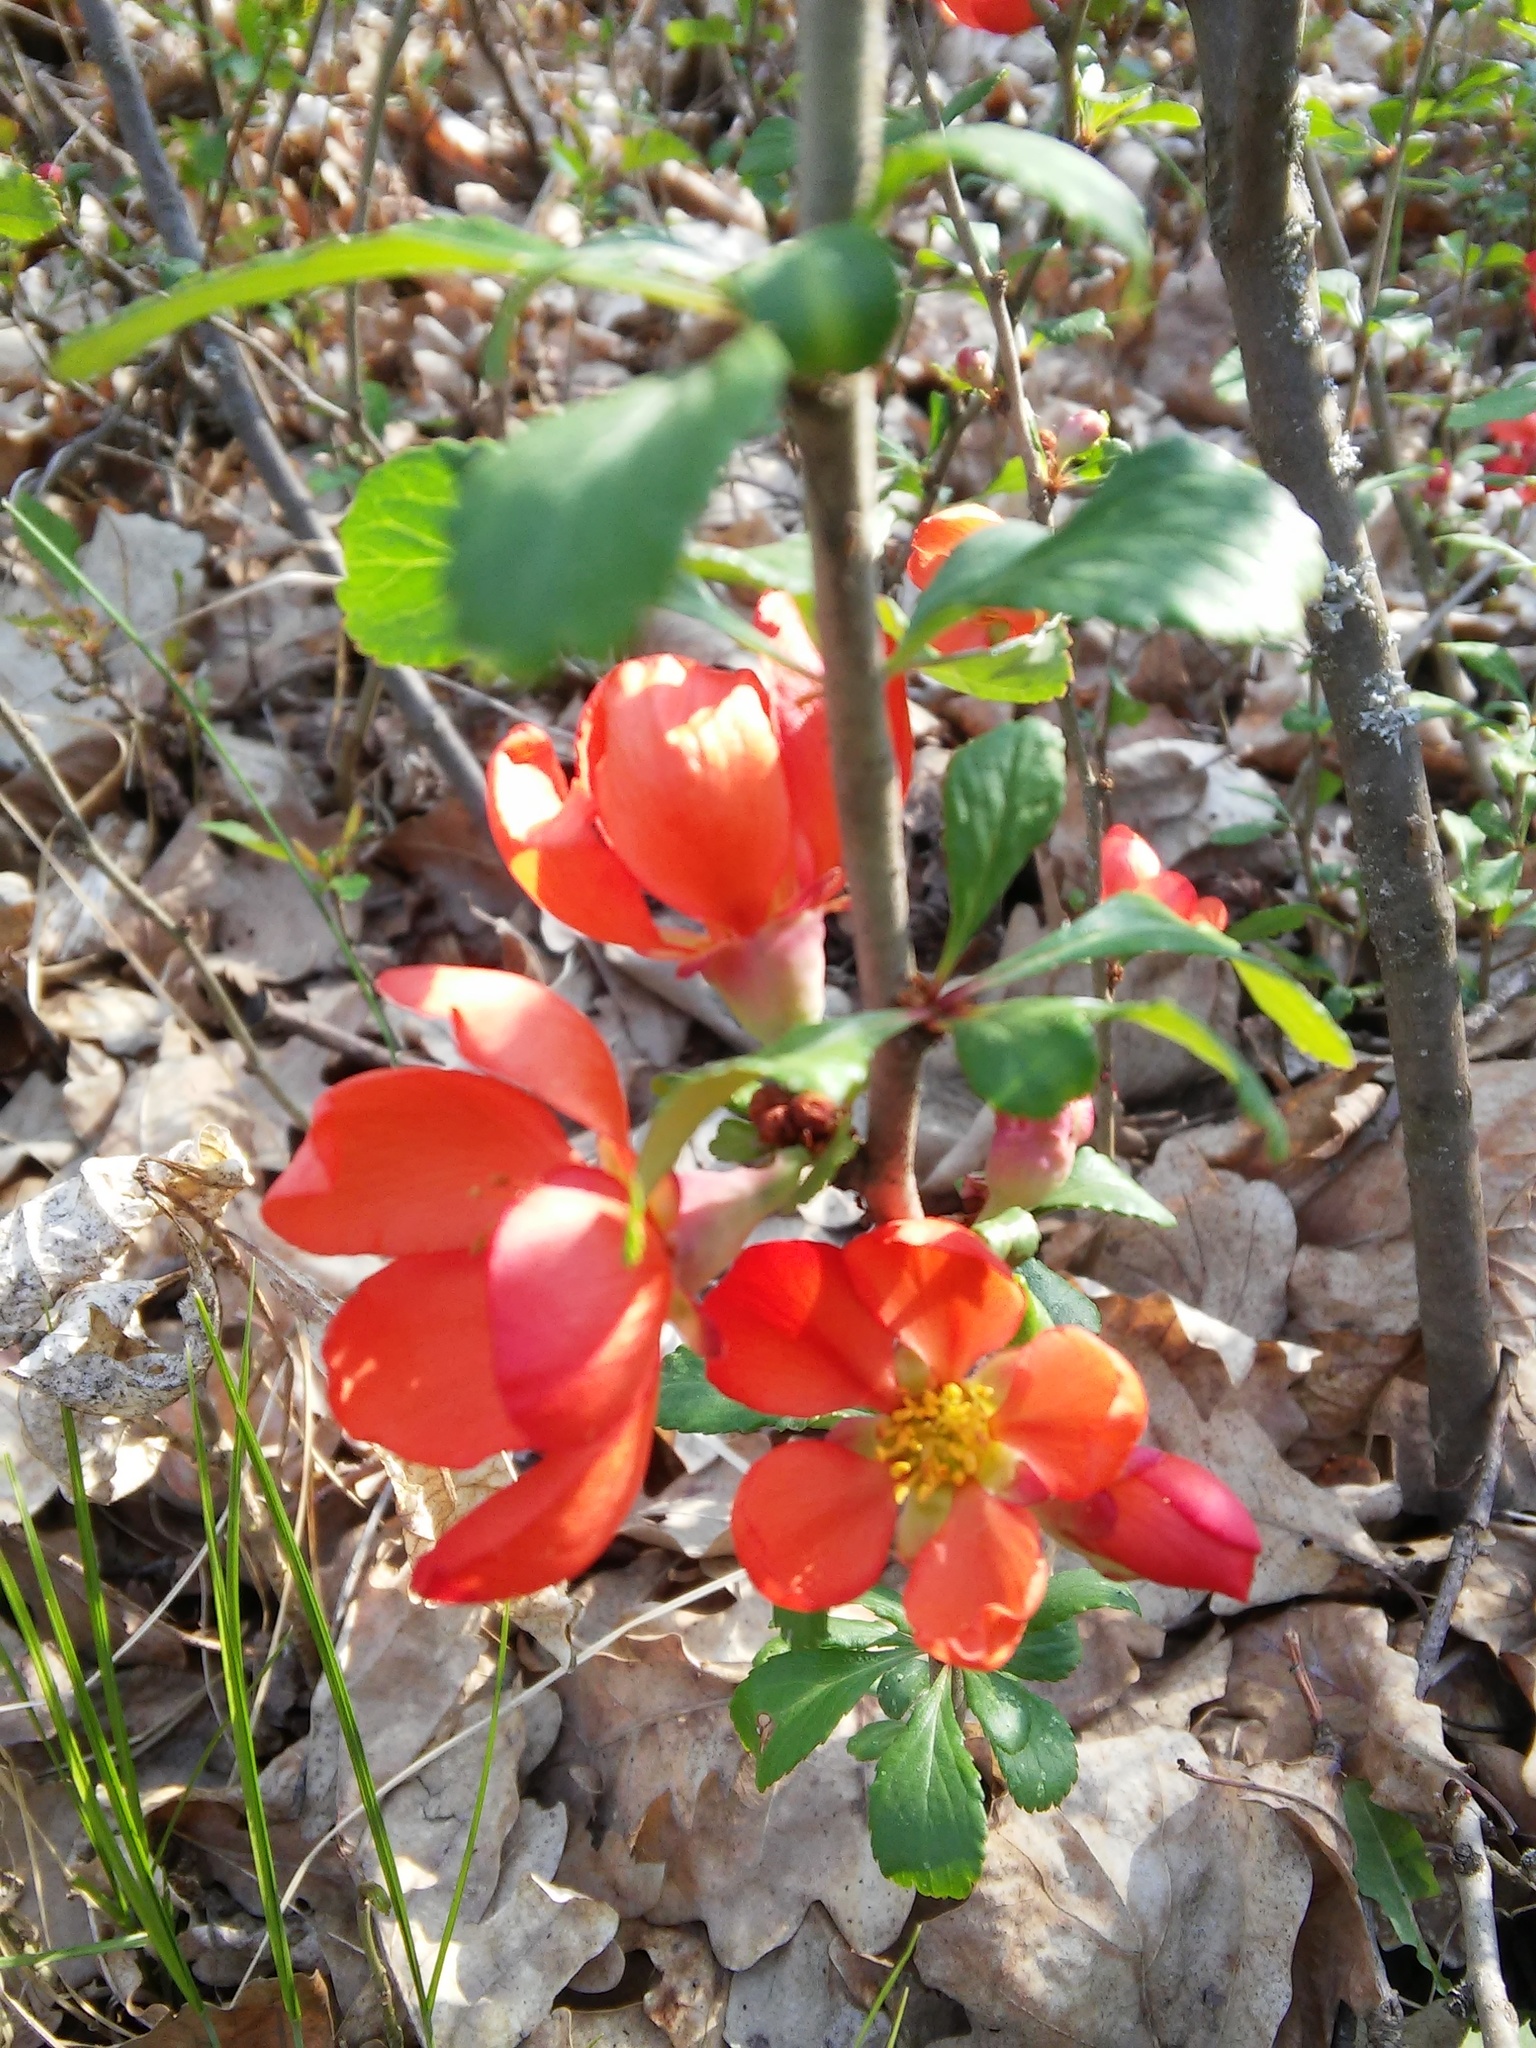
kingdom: Plantae
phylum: Tracheophyta
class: Magnoliopsida
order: Rosales
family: Rosaceae
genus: Chaenomeles
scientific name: Chaenomeles japonica
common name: Japanese quince
